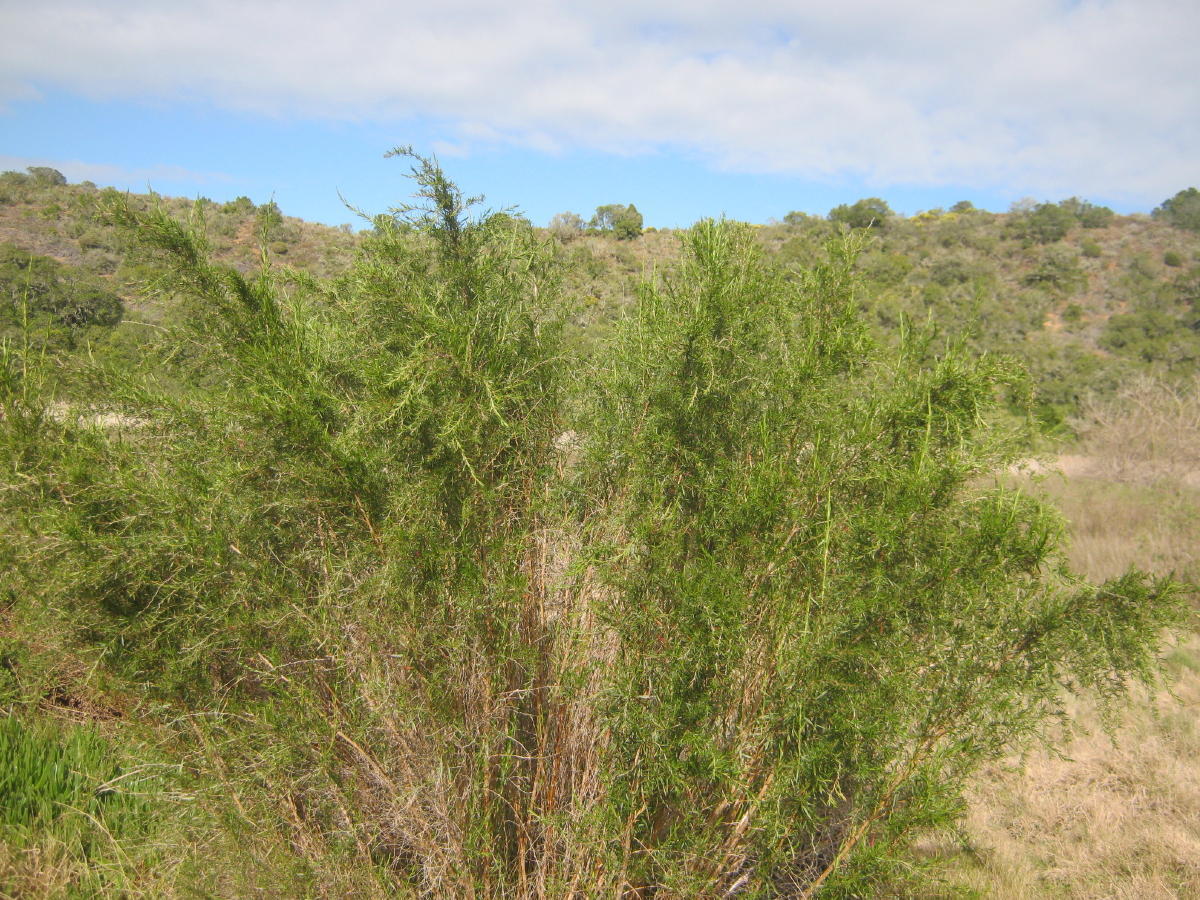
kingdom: Plantae
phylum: Tracheophyta
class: Magnoliopsida
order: Rosales
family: Rosaceae
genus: Cliffortia
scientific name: Cliffortia strobilifera
